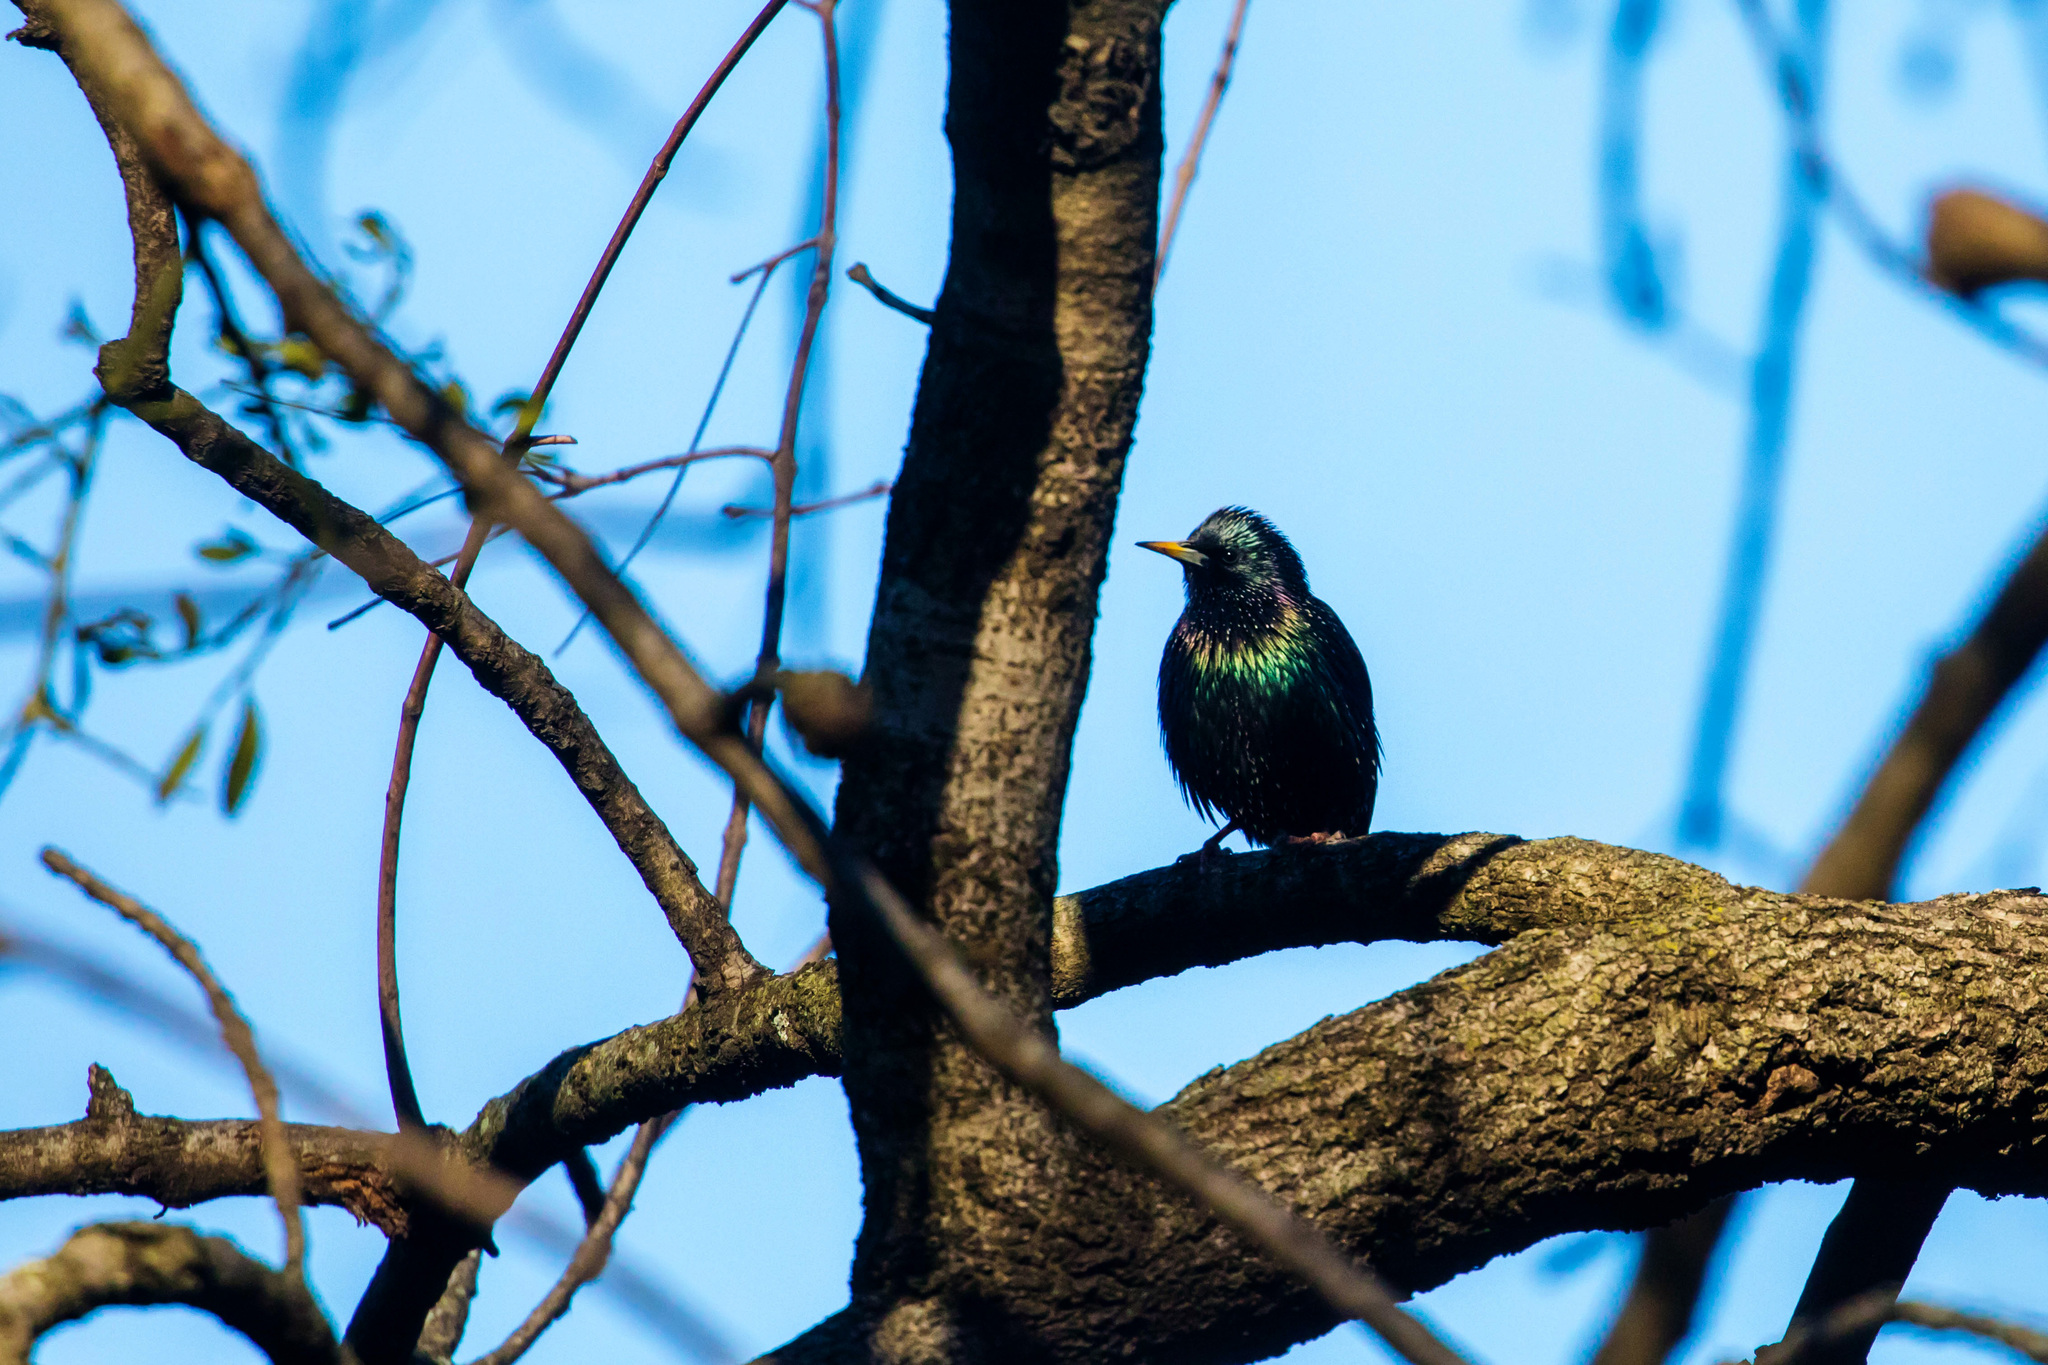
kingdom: Animalia
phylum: Chordata
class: Aves
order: Passeriformes
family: Sturnidae
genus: Sturnus
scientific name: Sturnus vulgaris
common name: Common starling
